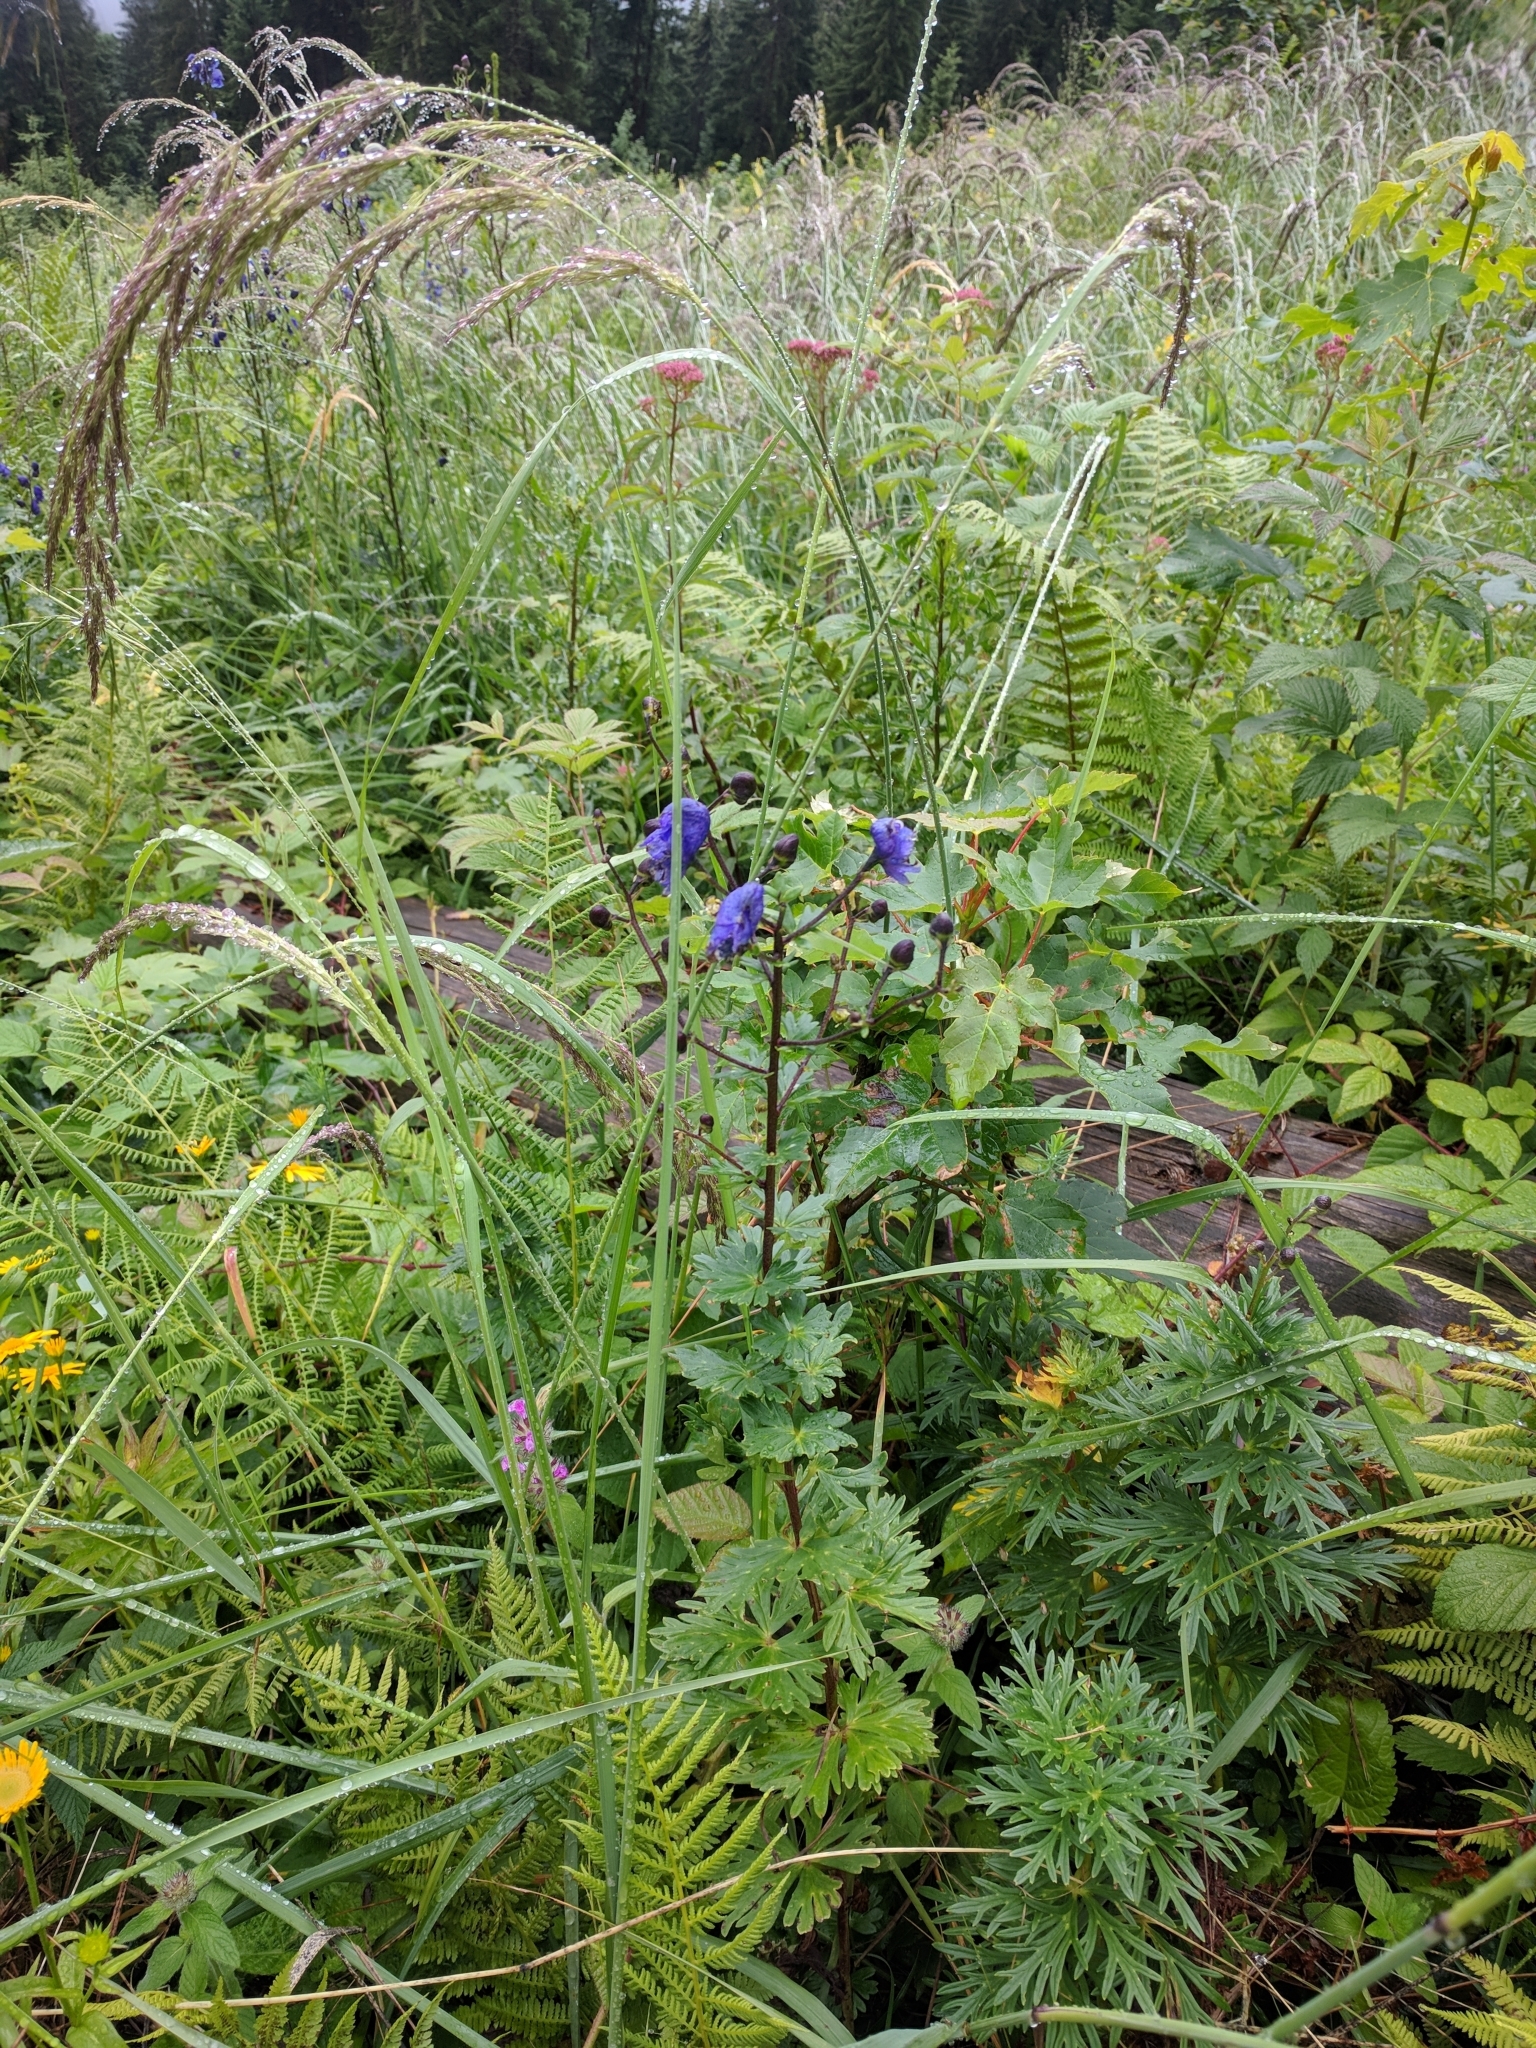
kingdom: Plantae
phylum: Tracheophyta
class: Magnoliopsida
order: Ranunculales
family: Ranunculaceae
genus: Aconitum
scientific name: Aconitum napellus
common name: Garden monkshood
